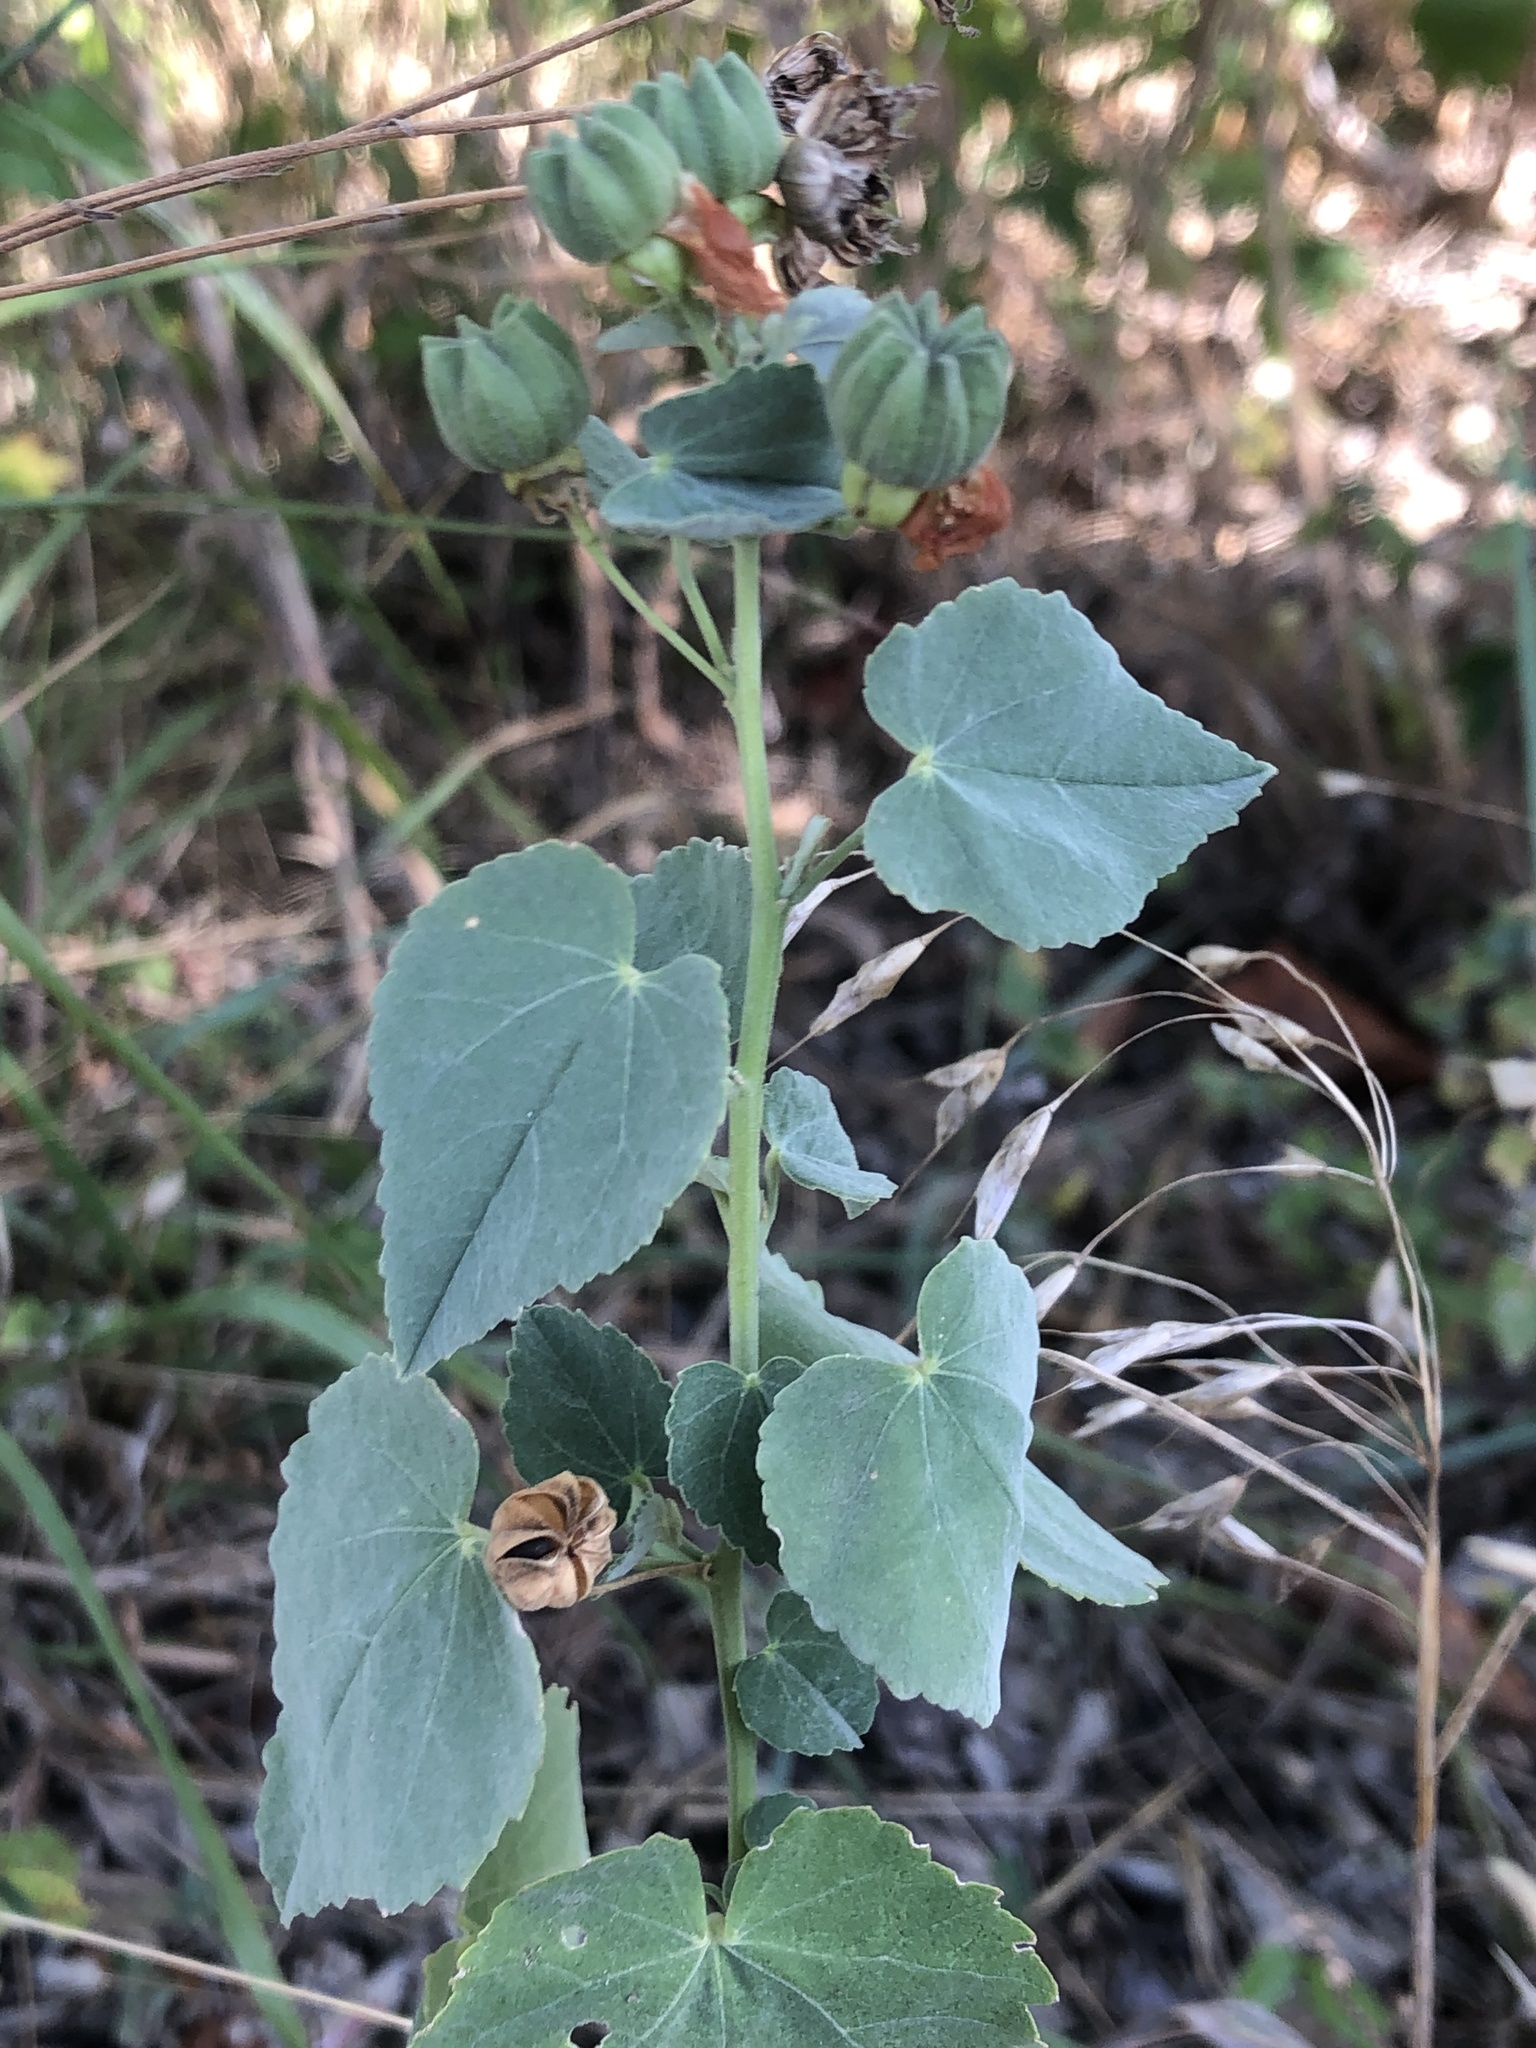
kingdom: Plantae
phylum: Tracheophyta
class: Magnoliopsida
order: Malvales
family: Malvaceae
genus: Abutilon
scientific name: Abutilon fruticosum
